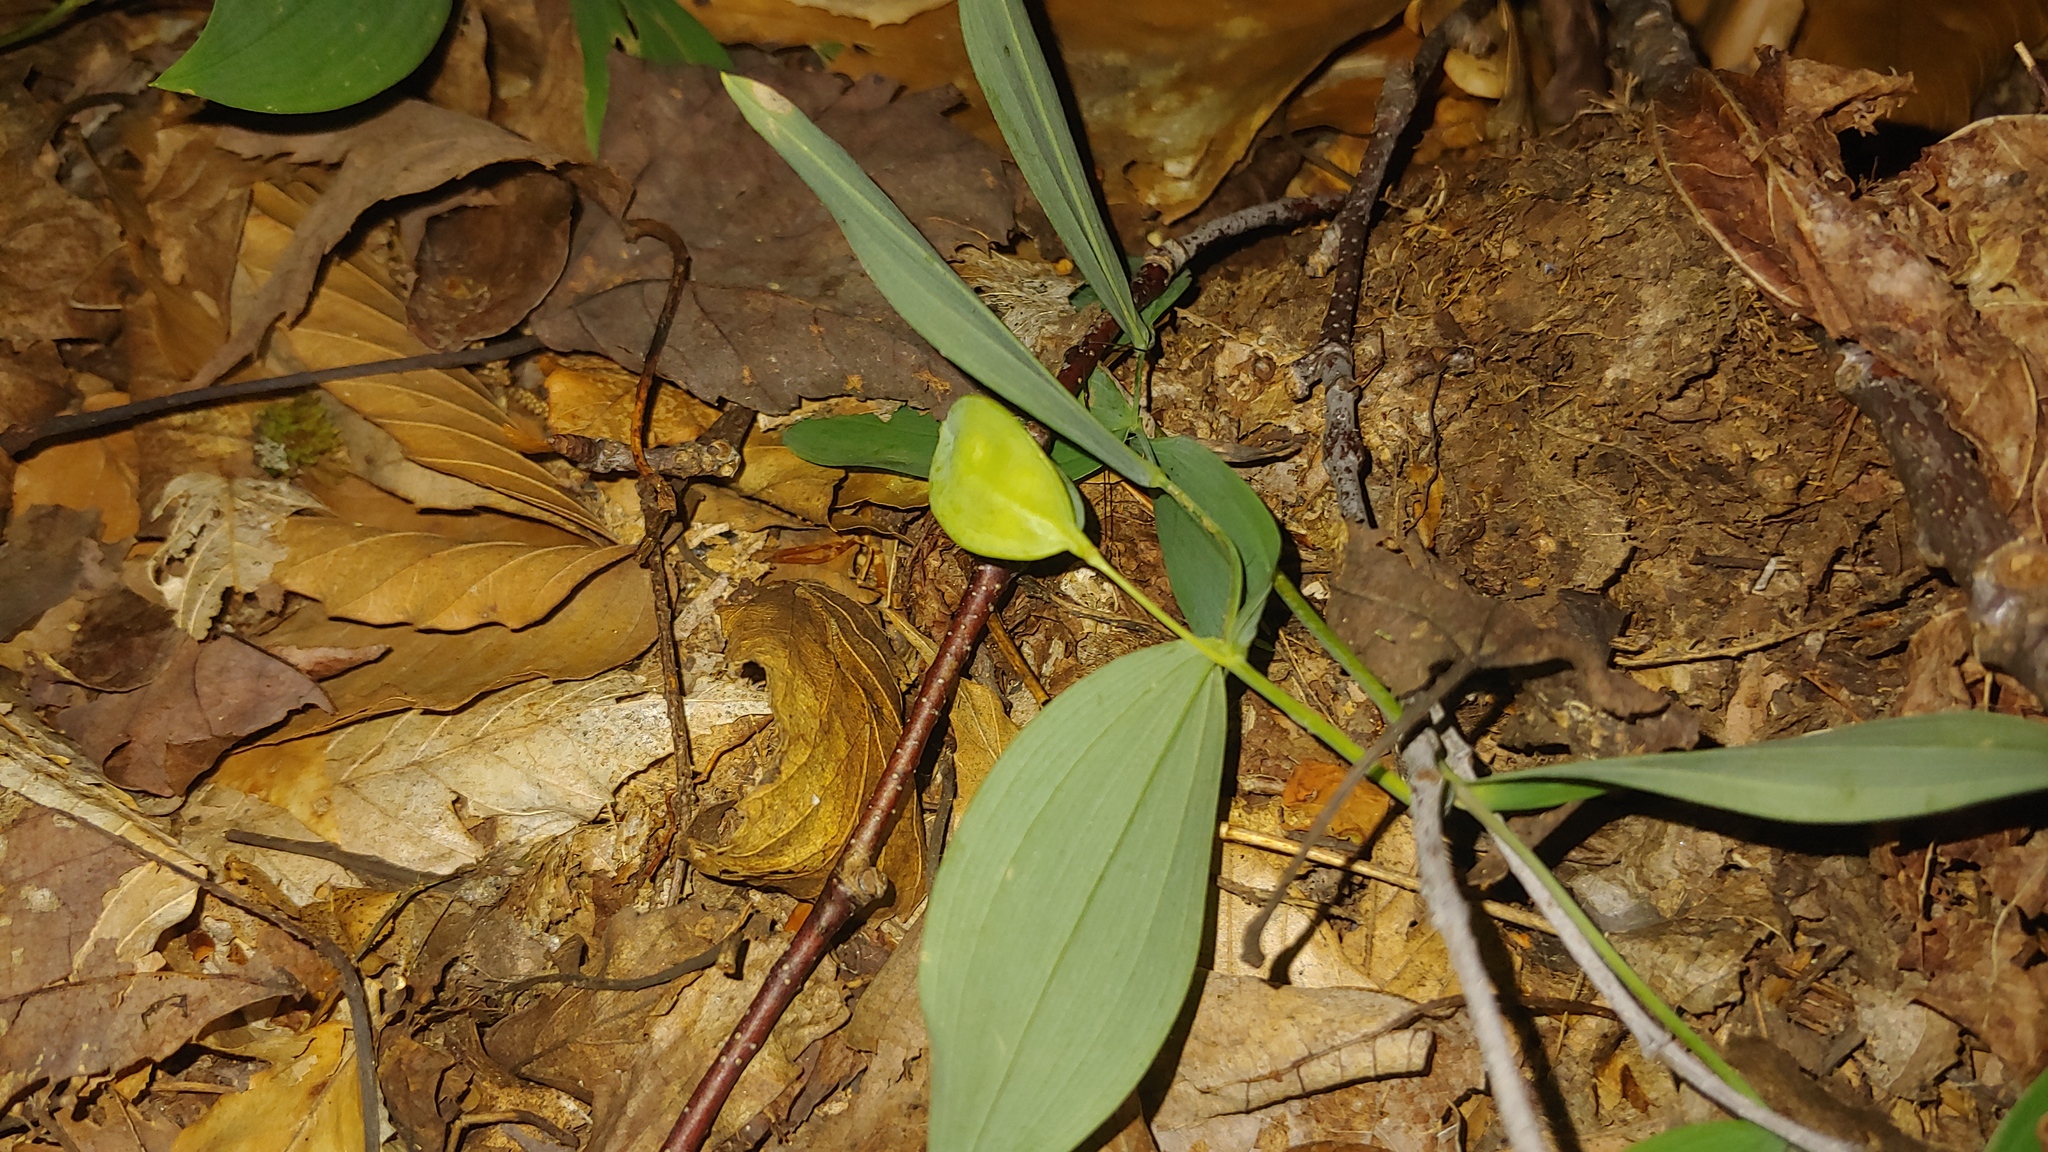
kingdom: Plantae
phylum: Tracheophyta
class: Liliopsida
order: Liliales
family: Colchicaceae
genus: Uvularia
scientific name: Uvularia sessilifolia
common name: Straw-lily
